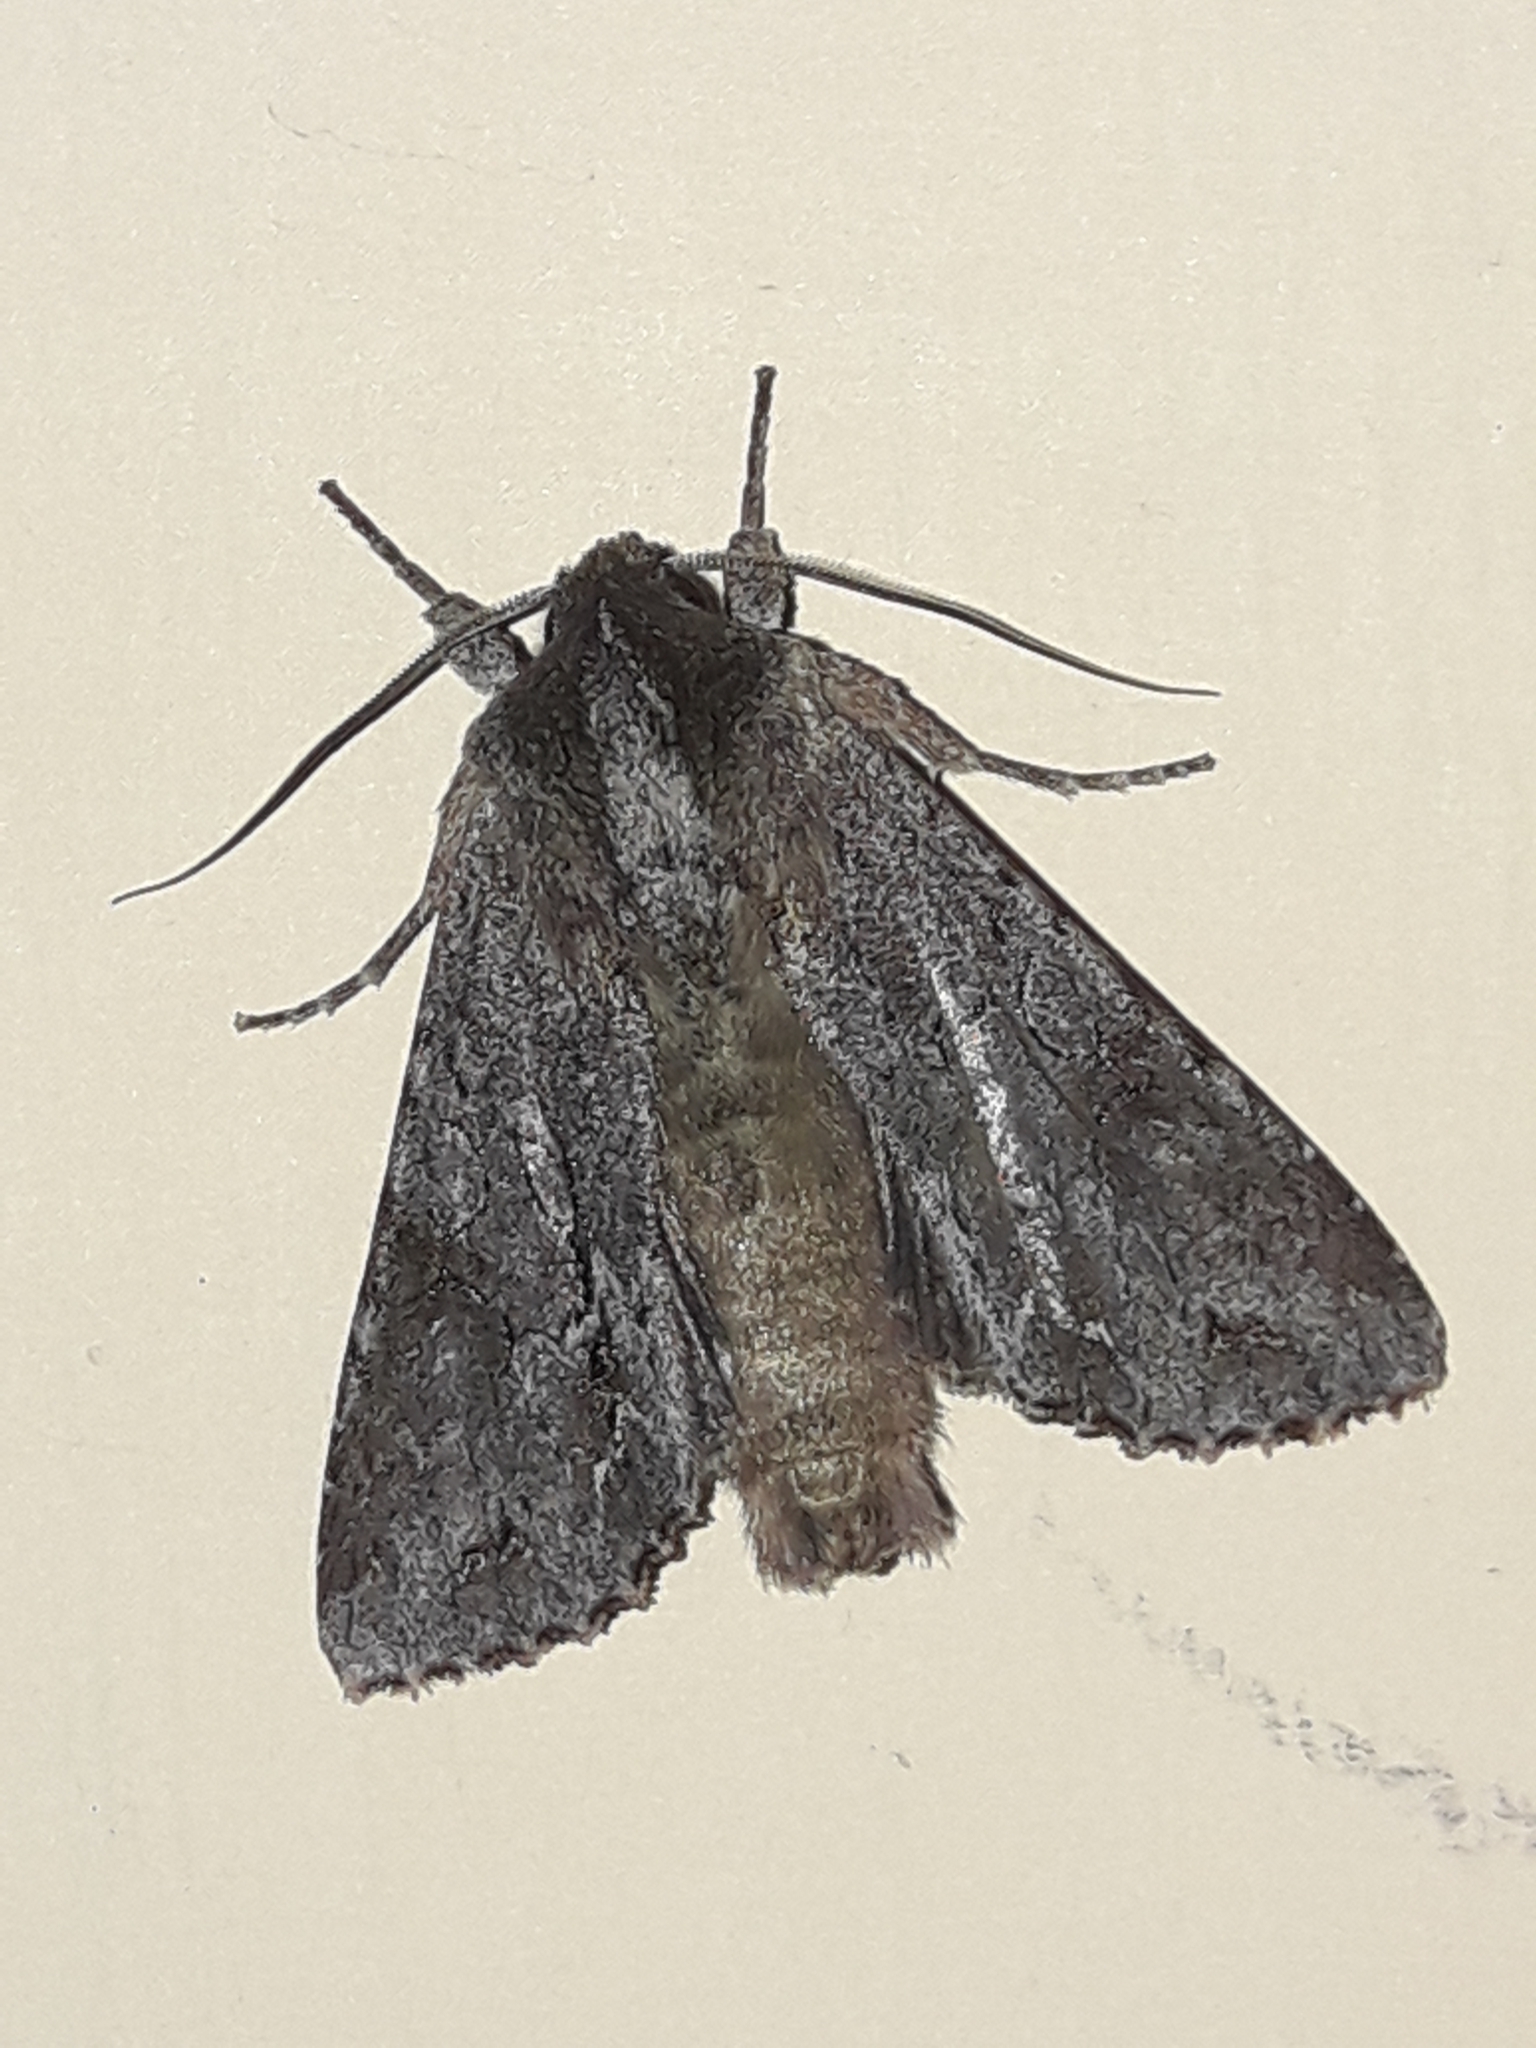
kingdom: Animalia
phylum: Arthropoda
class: Insecta
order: Lepidoptera
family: Noctuidae
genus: Ichneutica
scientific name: Ichneutica
